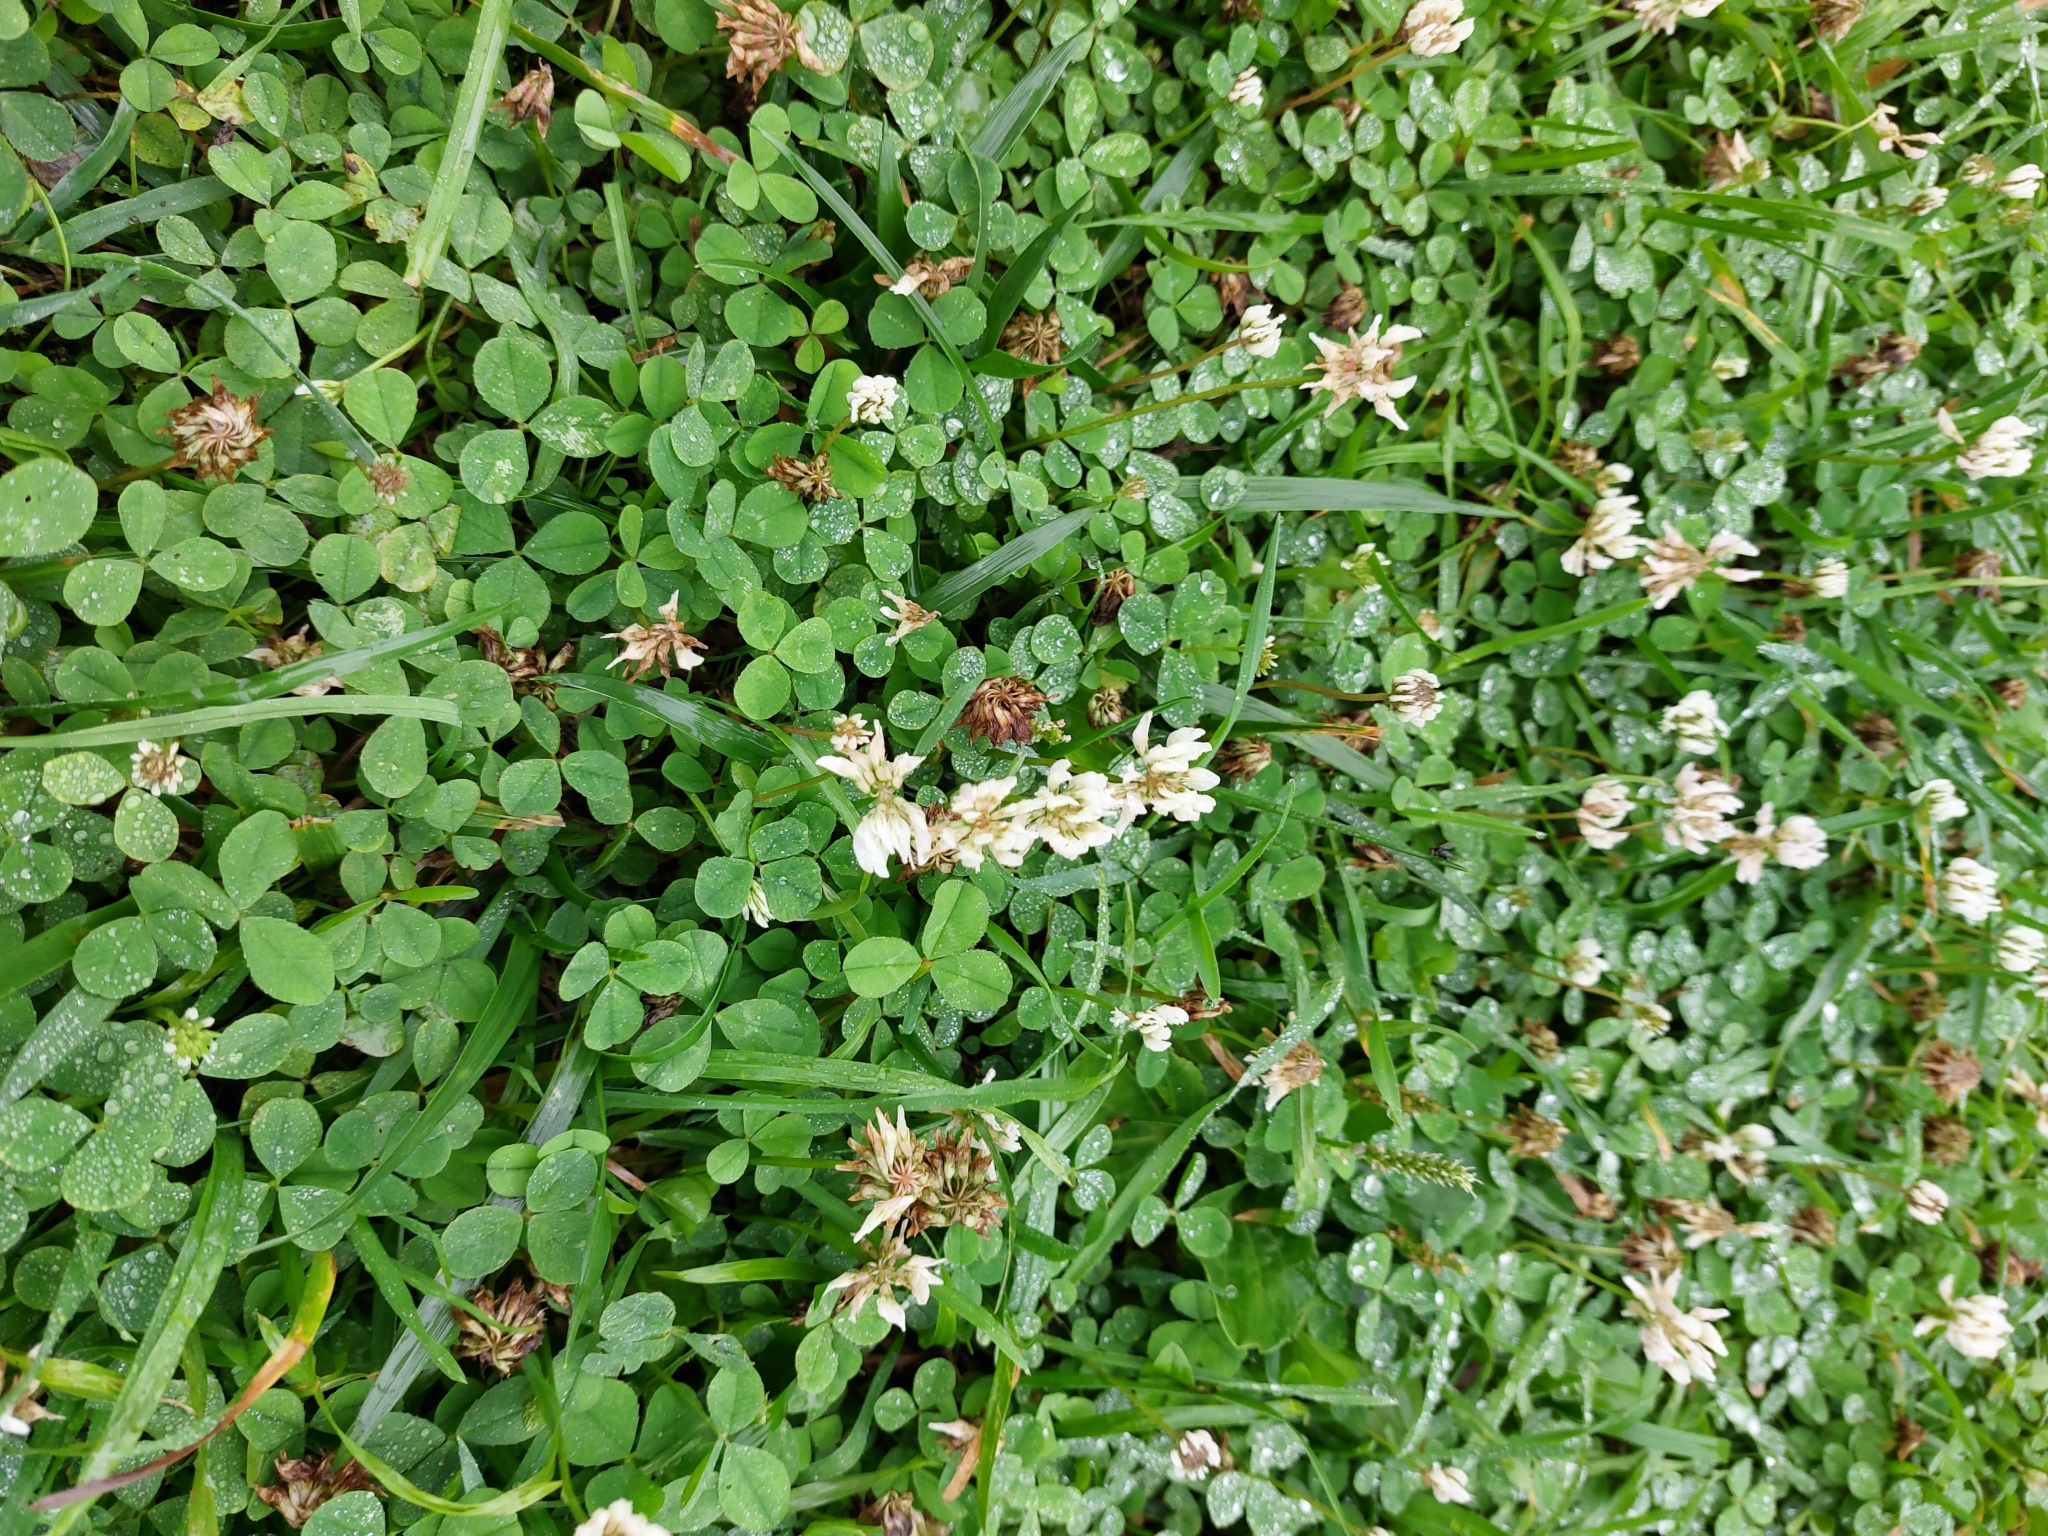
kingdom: Plantae
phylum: Tracheophyta
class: Magnoliopsida
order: Fabales
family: Fabaceae
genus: Trifolium
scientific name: Trifolium repens
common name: White clover
